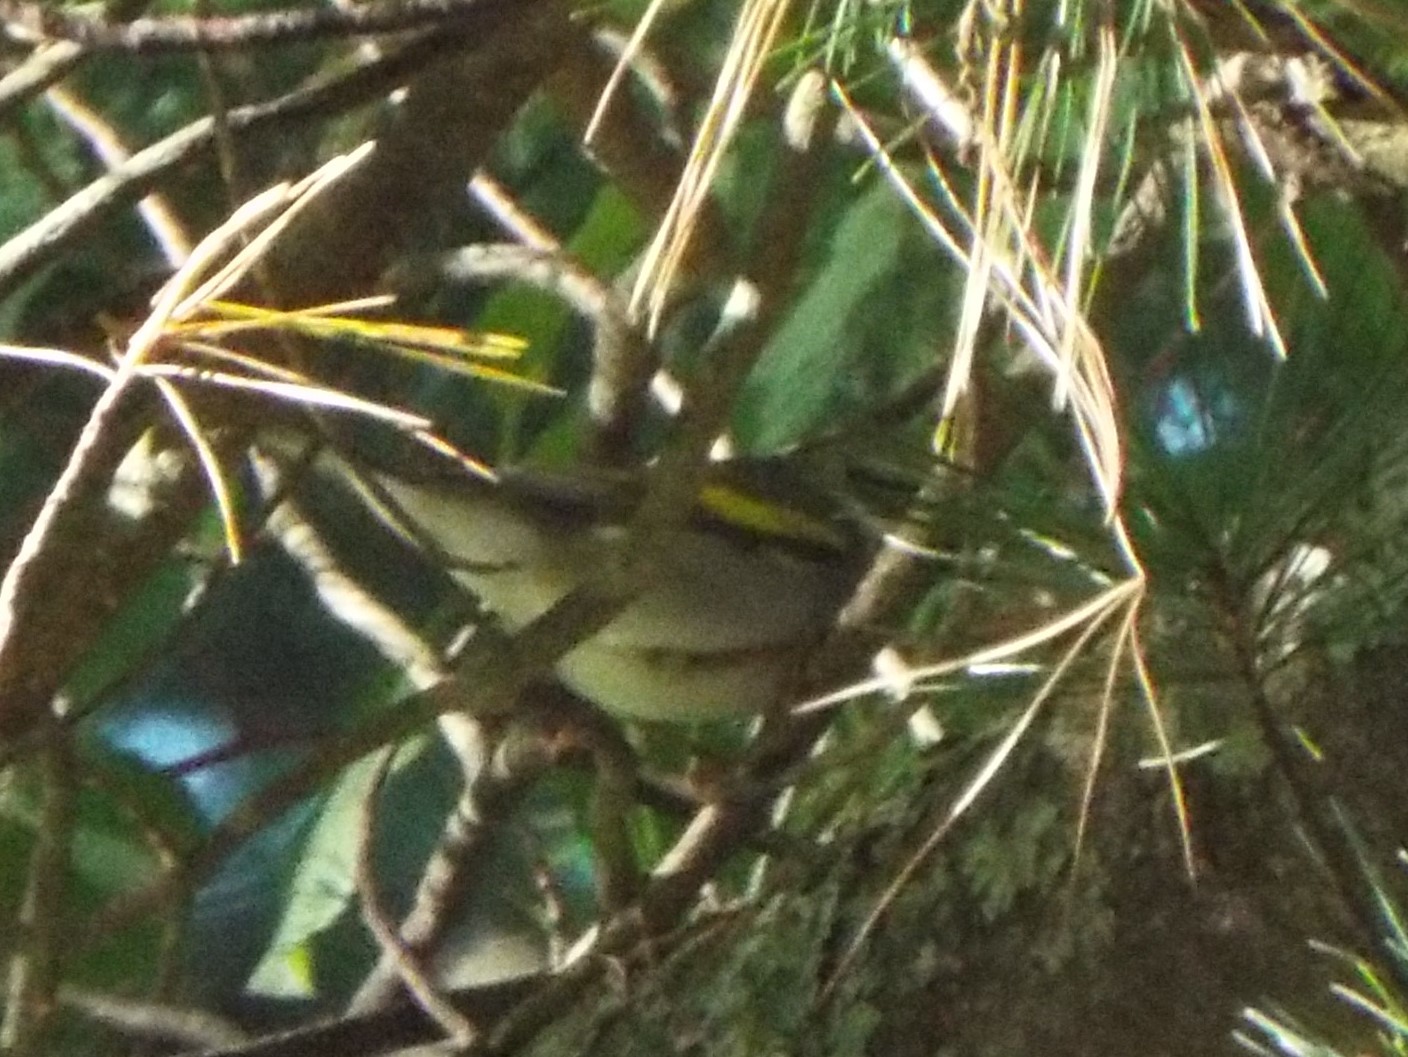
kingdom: Animalia
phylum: Chordata
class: Aves
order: Passeriformes
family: Parulidae
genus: Vermivora
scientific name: Vermivora chrysoptera
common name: Golden-winged warbler
